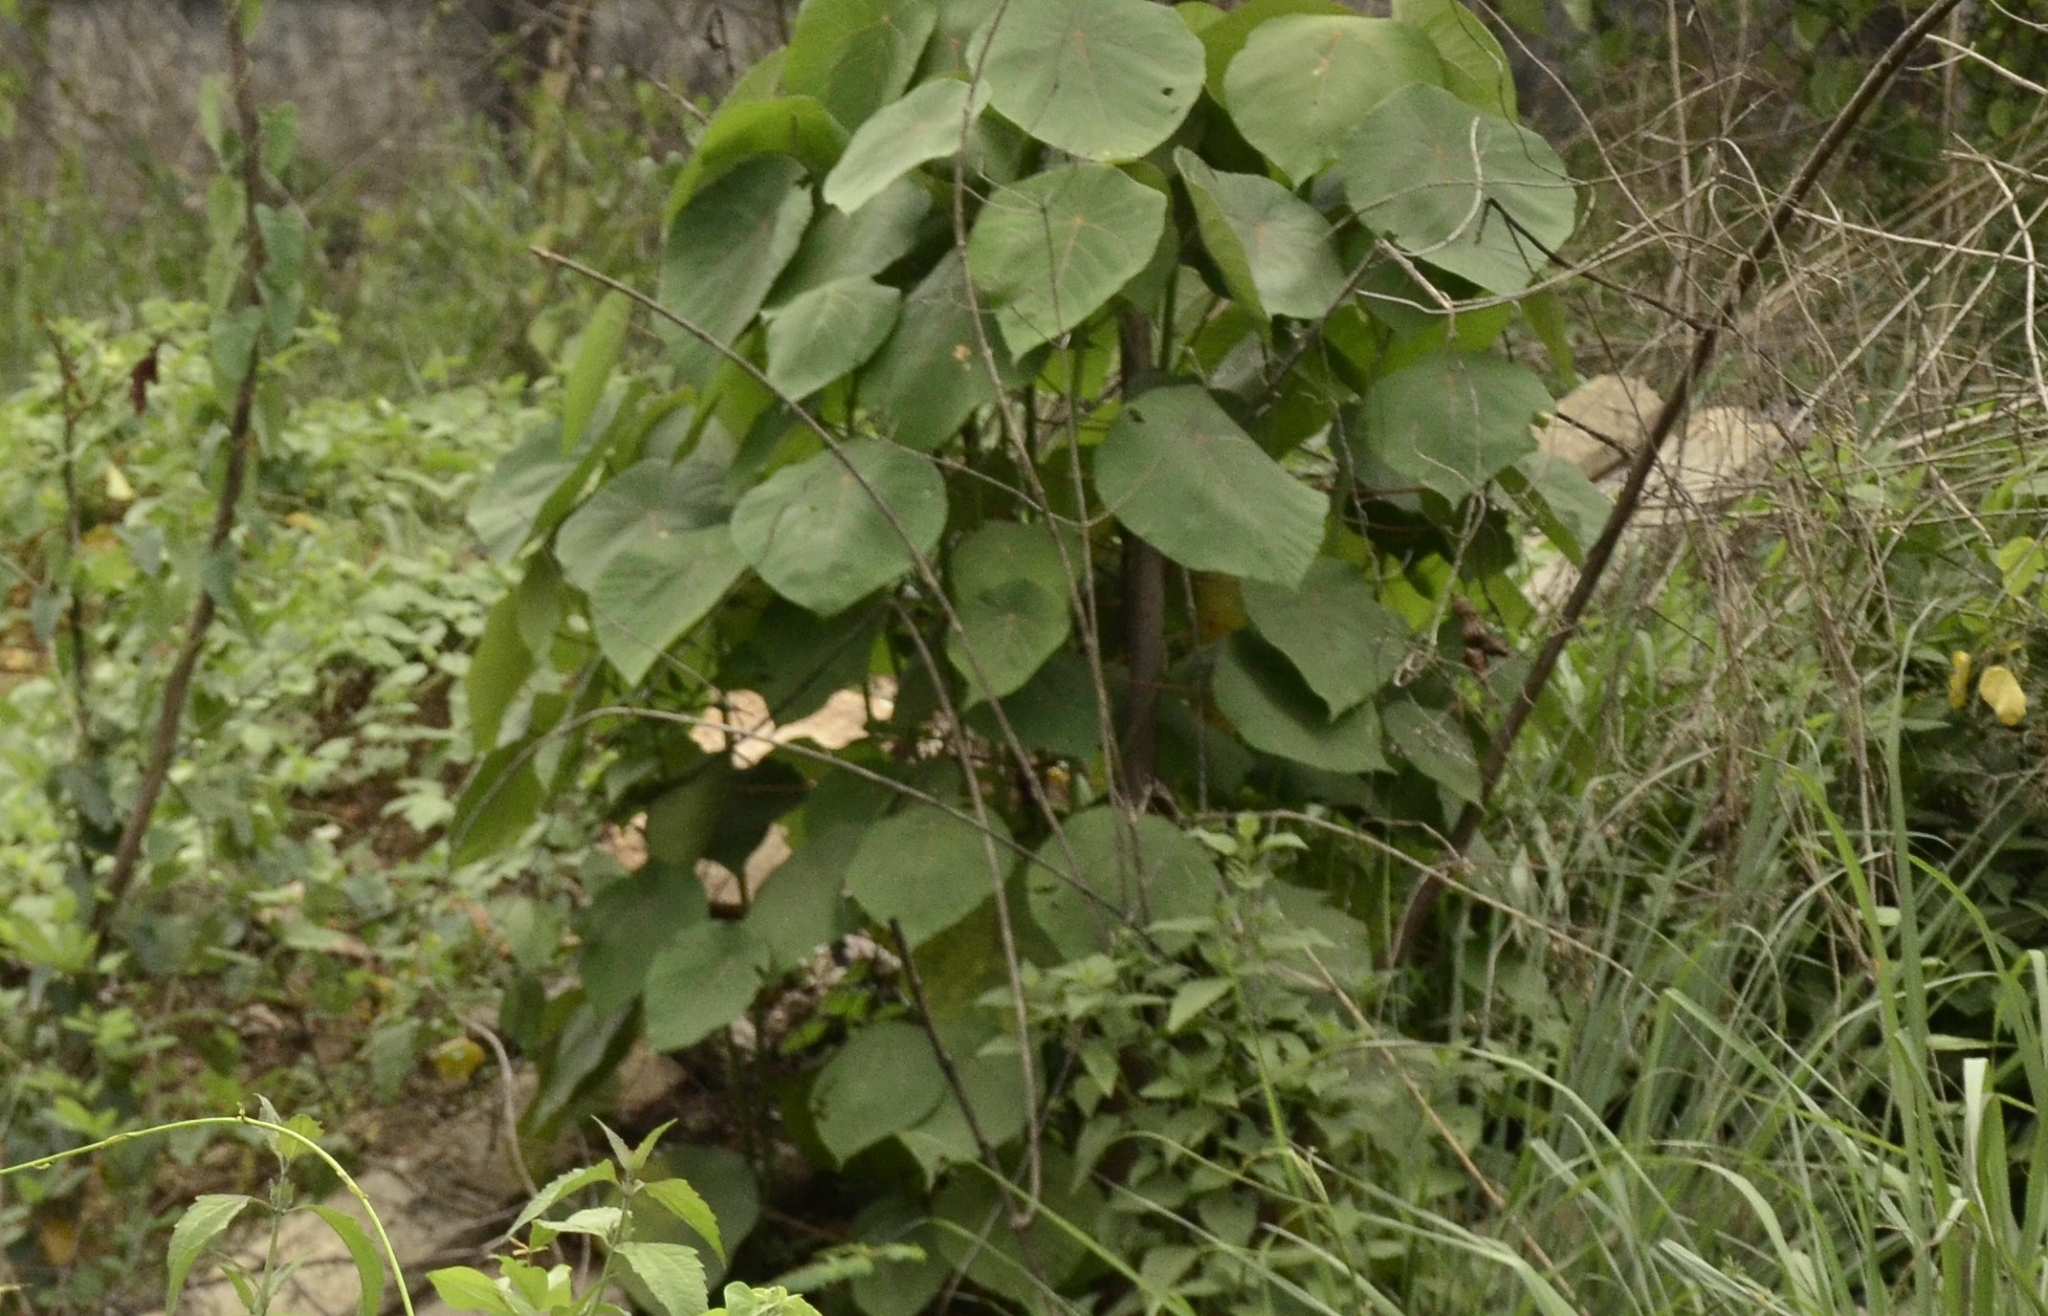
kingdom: Plantae
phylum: Tracheophyta
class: Magnoliopsida
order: Malpighiales
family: Euphorbiaceae
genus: Macaranga
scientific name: Macaranga peltata
